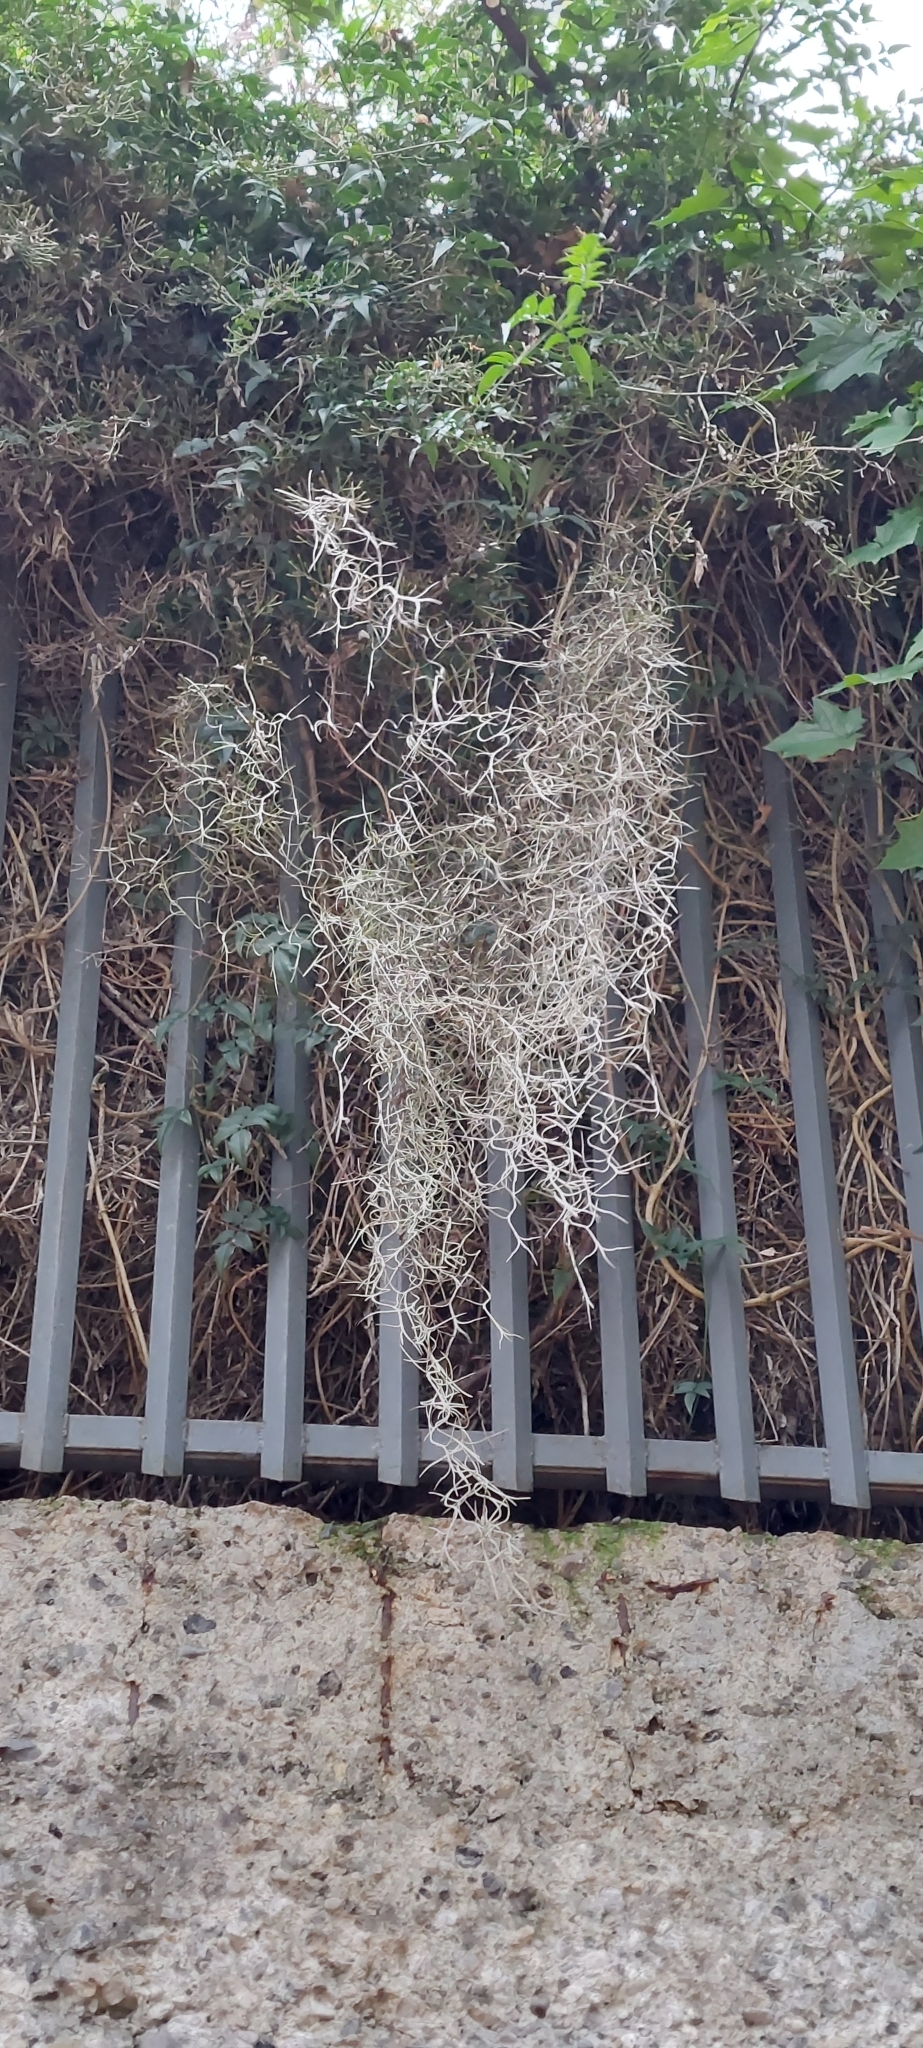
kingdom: Plantae
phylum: Tracheophyta
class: Liliopsida
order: Poales
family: Bromeliaceae
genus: Tillandsia
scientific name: Tillandsia usneoides
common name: Spanish moss
